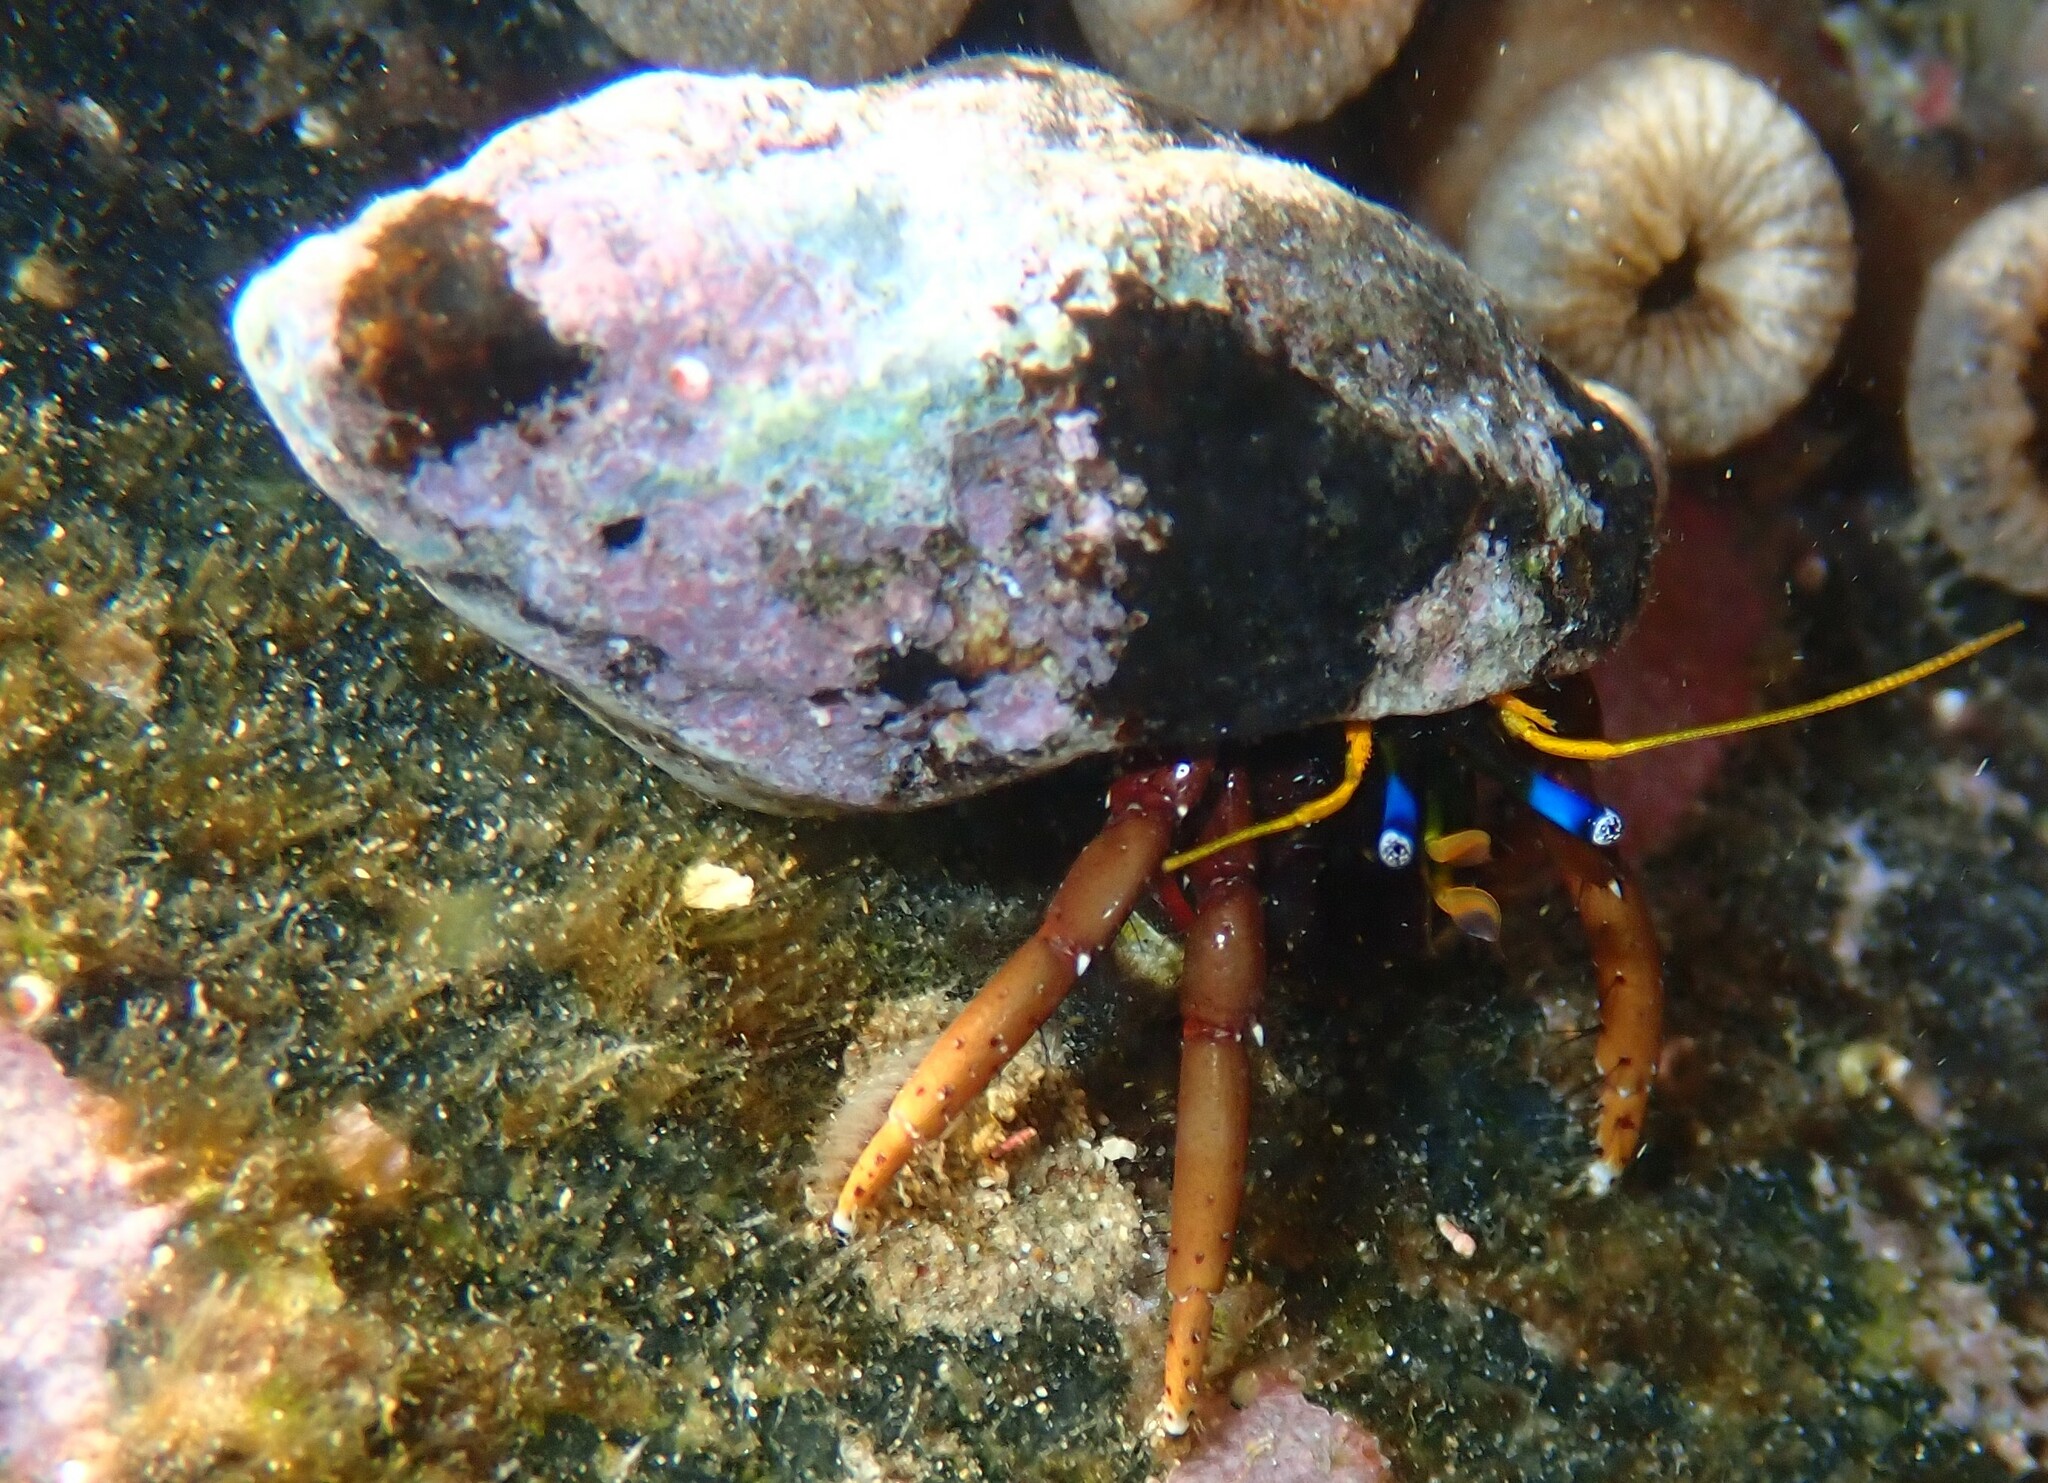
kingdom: Animalia
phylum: Arthropoda
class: Malacostraca
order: Decapoda
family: Diogenidae
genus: Calcinus
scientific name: Calcinus morgani
